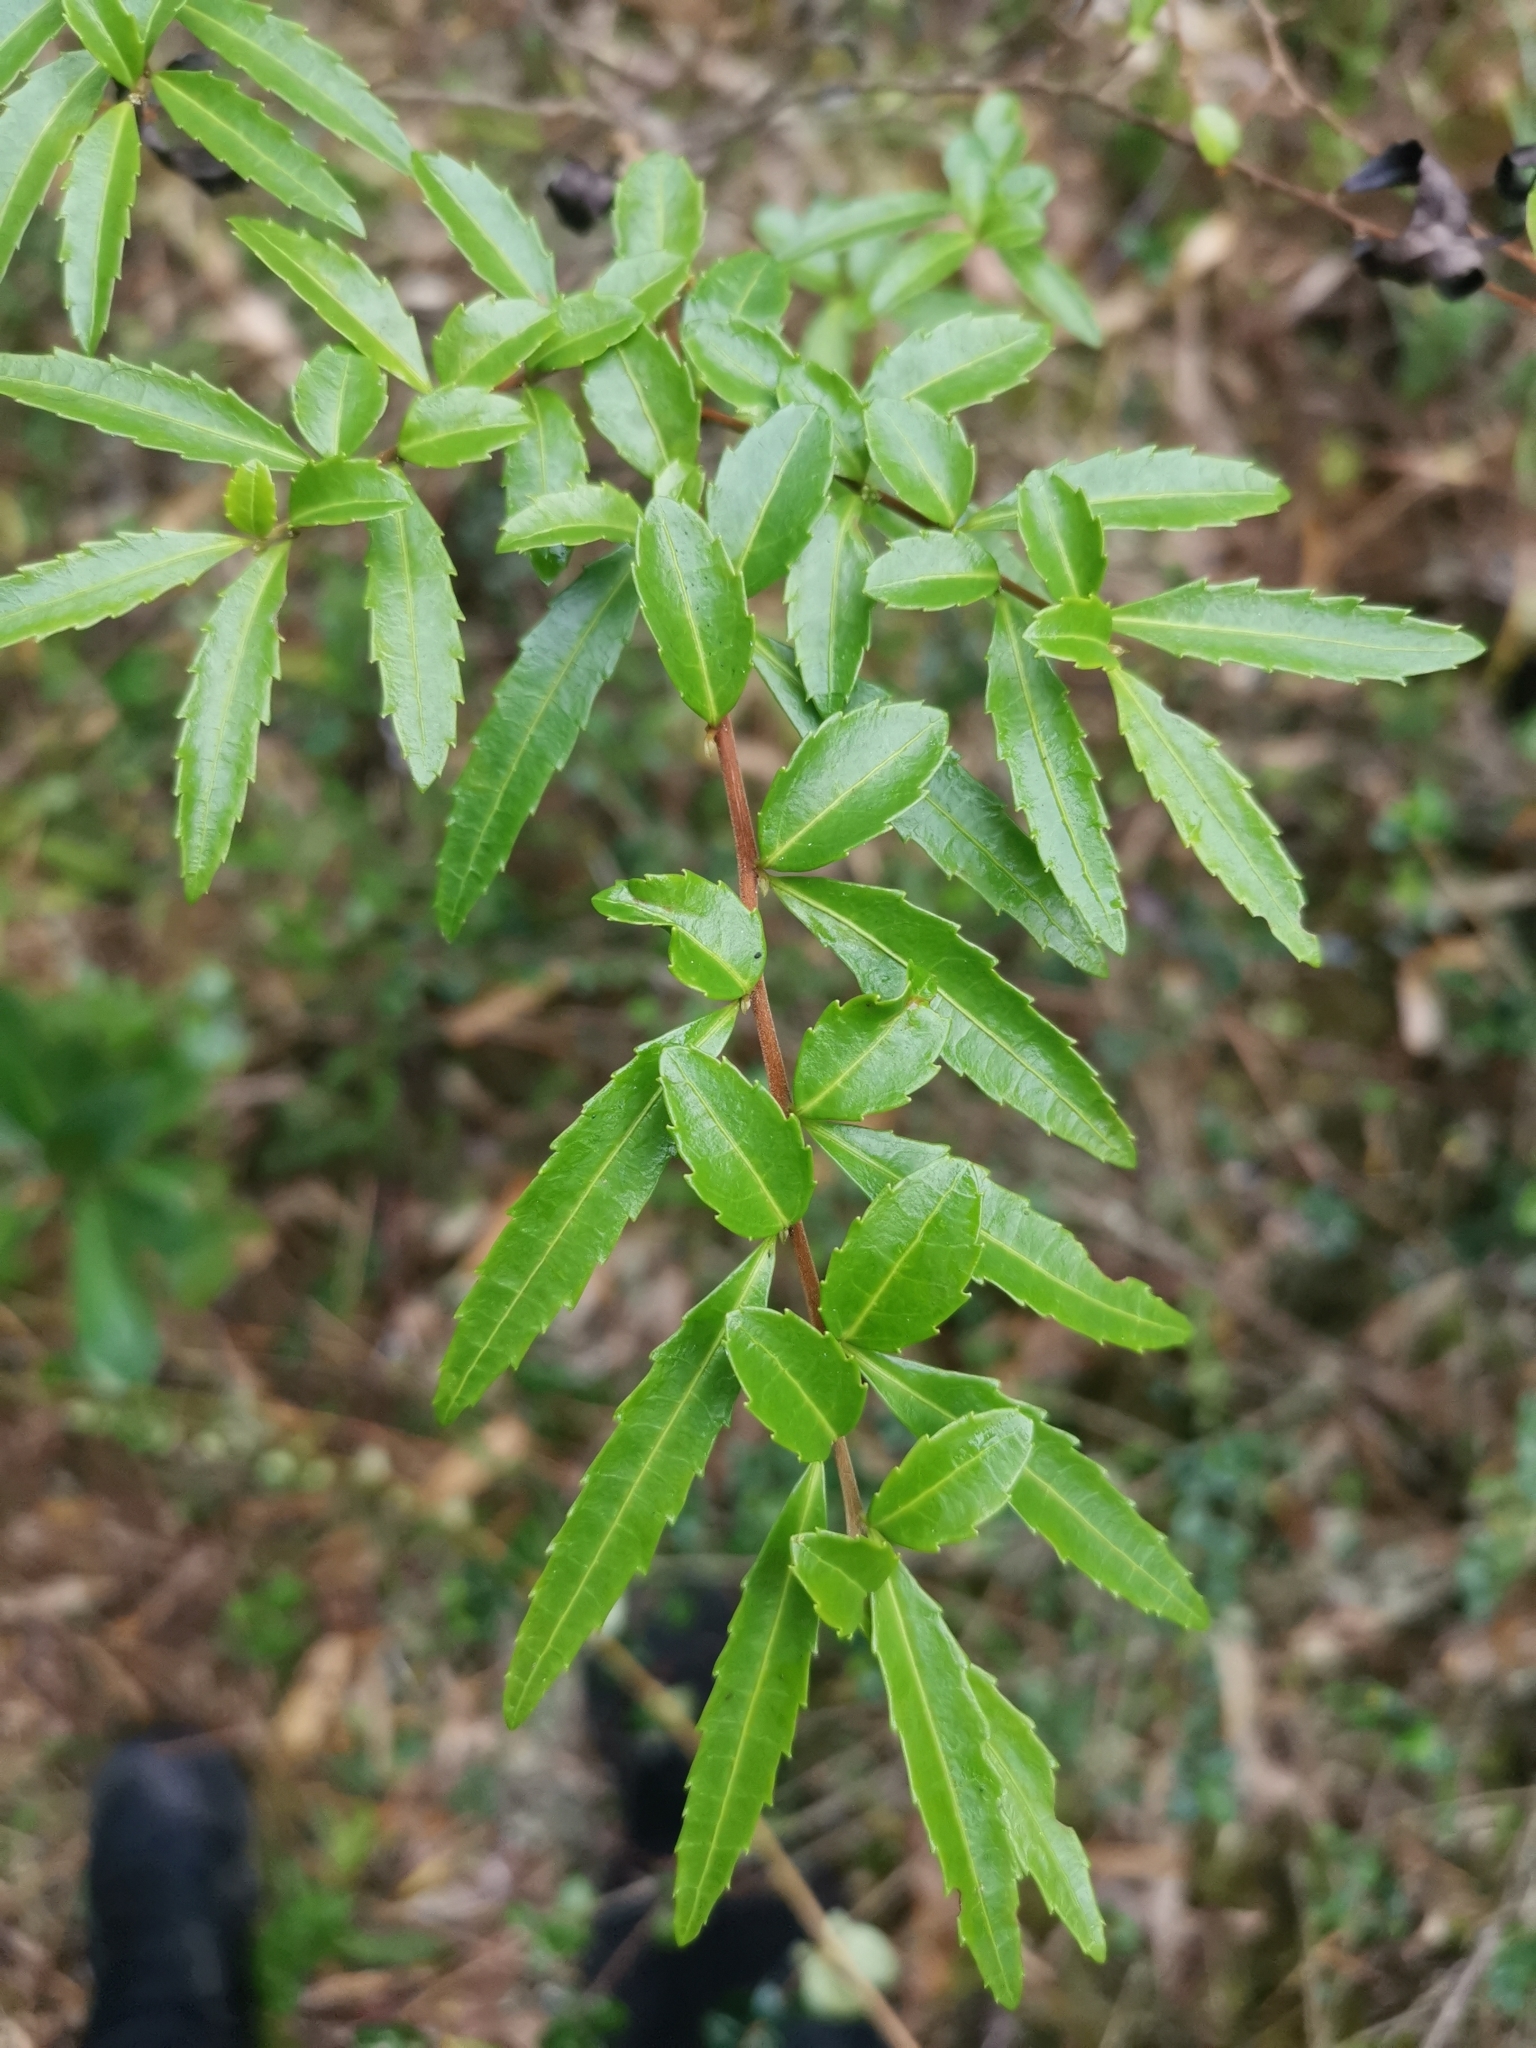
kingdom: Plantae
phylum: Tracheophyta
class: Magnoliopsida
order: Malpighiales
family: Salicaceae
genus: Azara
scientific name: Azara lanceolata
